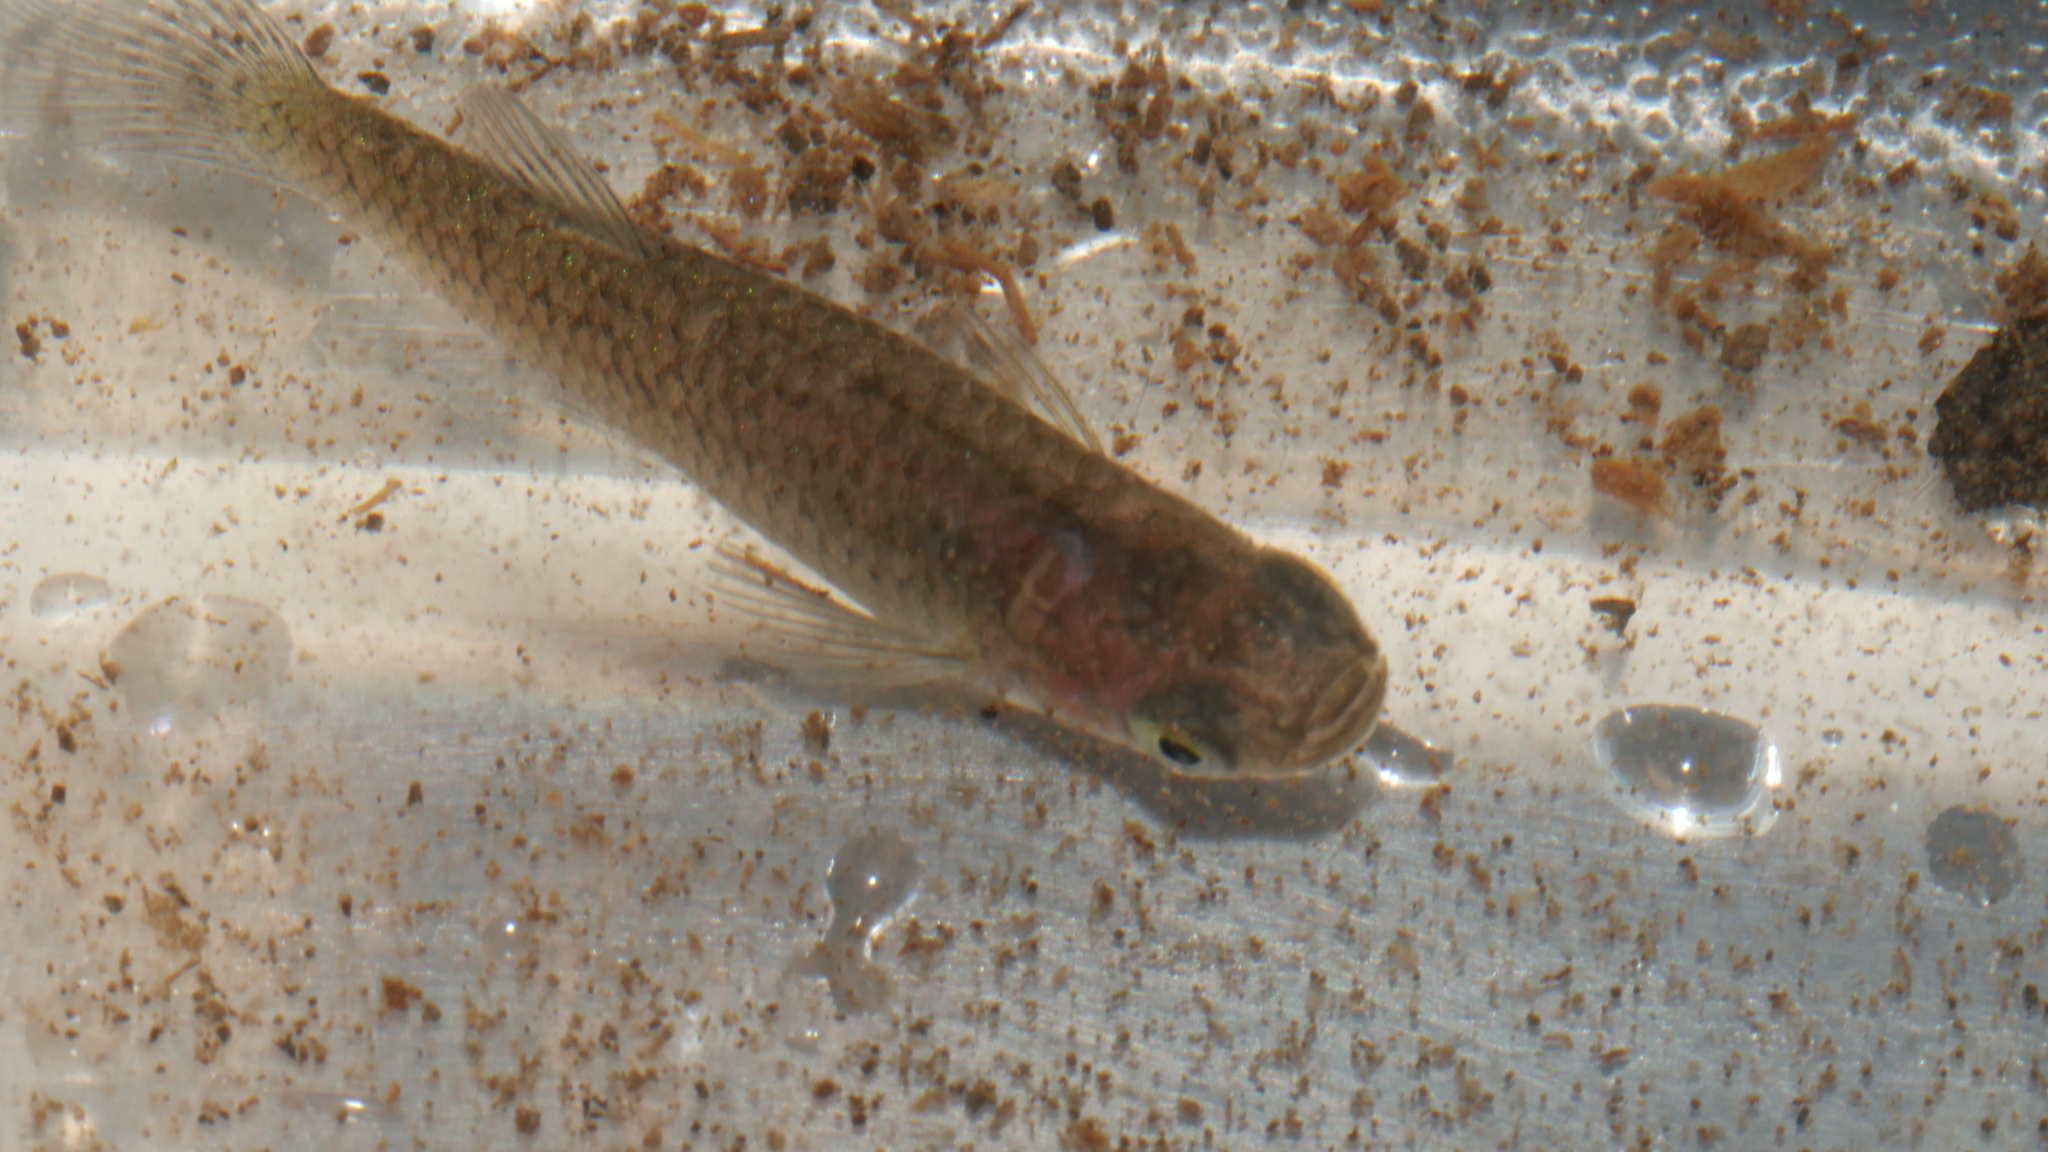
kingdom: Animalia
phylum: Chordata
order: Cyprinodontiformes
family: Poeciliidae
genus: Gambusia
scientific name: Gambusia holbrooki
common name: Eastern mosquitofish
